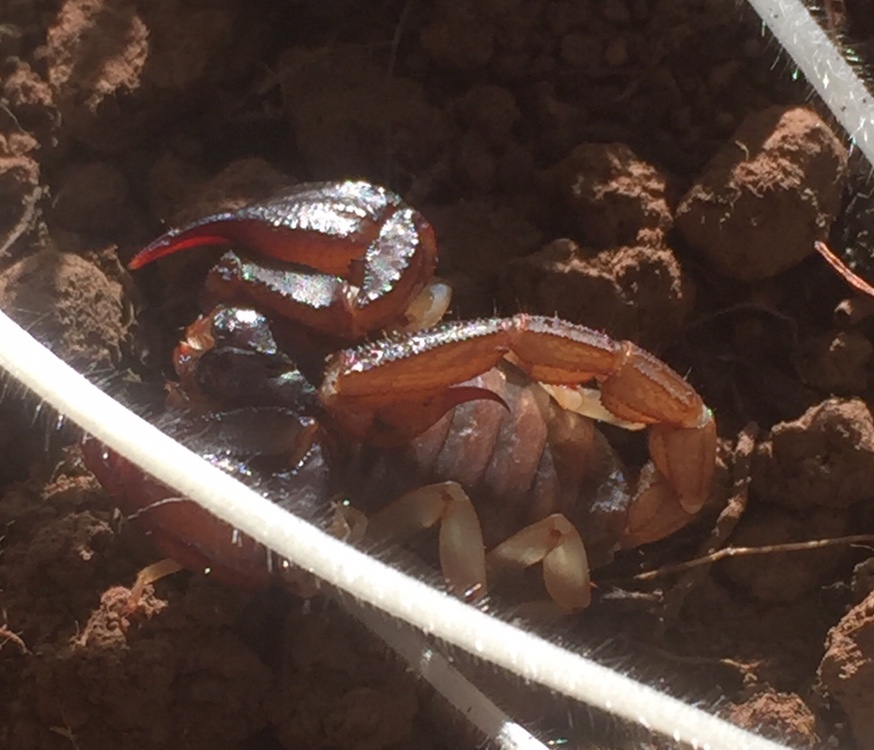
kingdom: Animalia
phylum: Arthropoda
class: Arachnida
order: Scorpiones
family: Chactidae
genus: Uroctonus
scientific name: Uroctonus mordax
